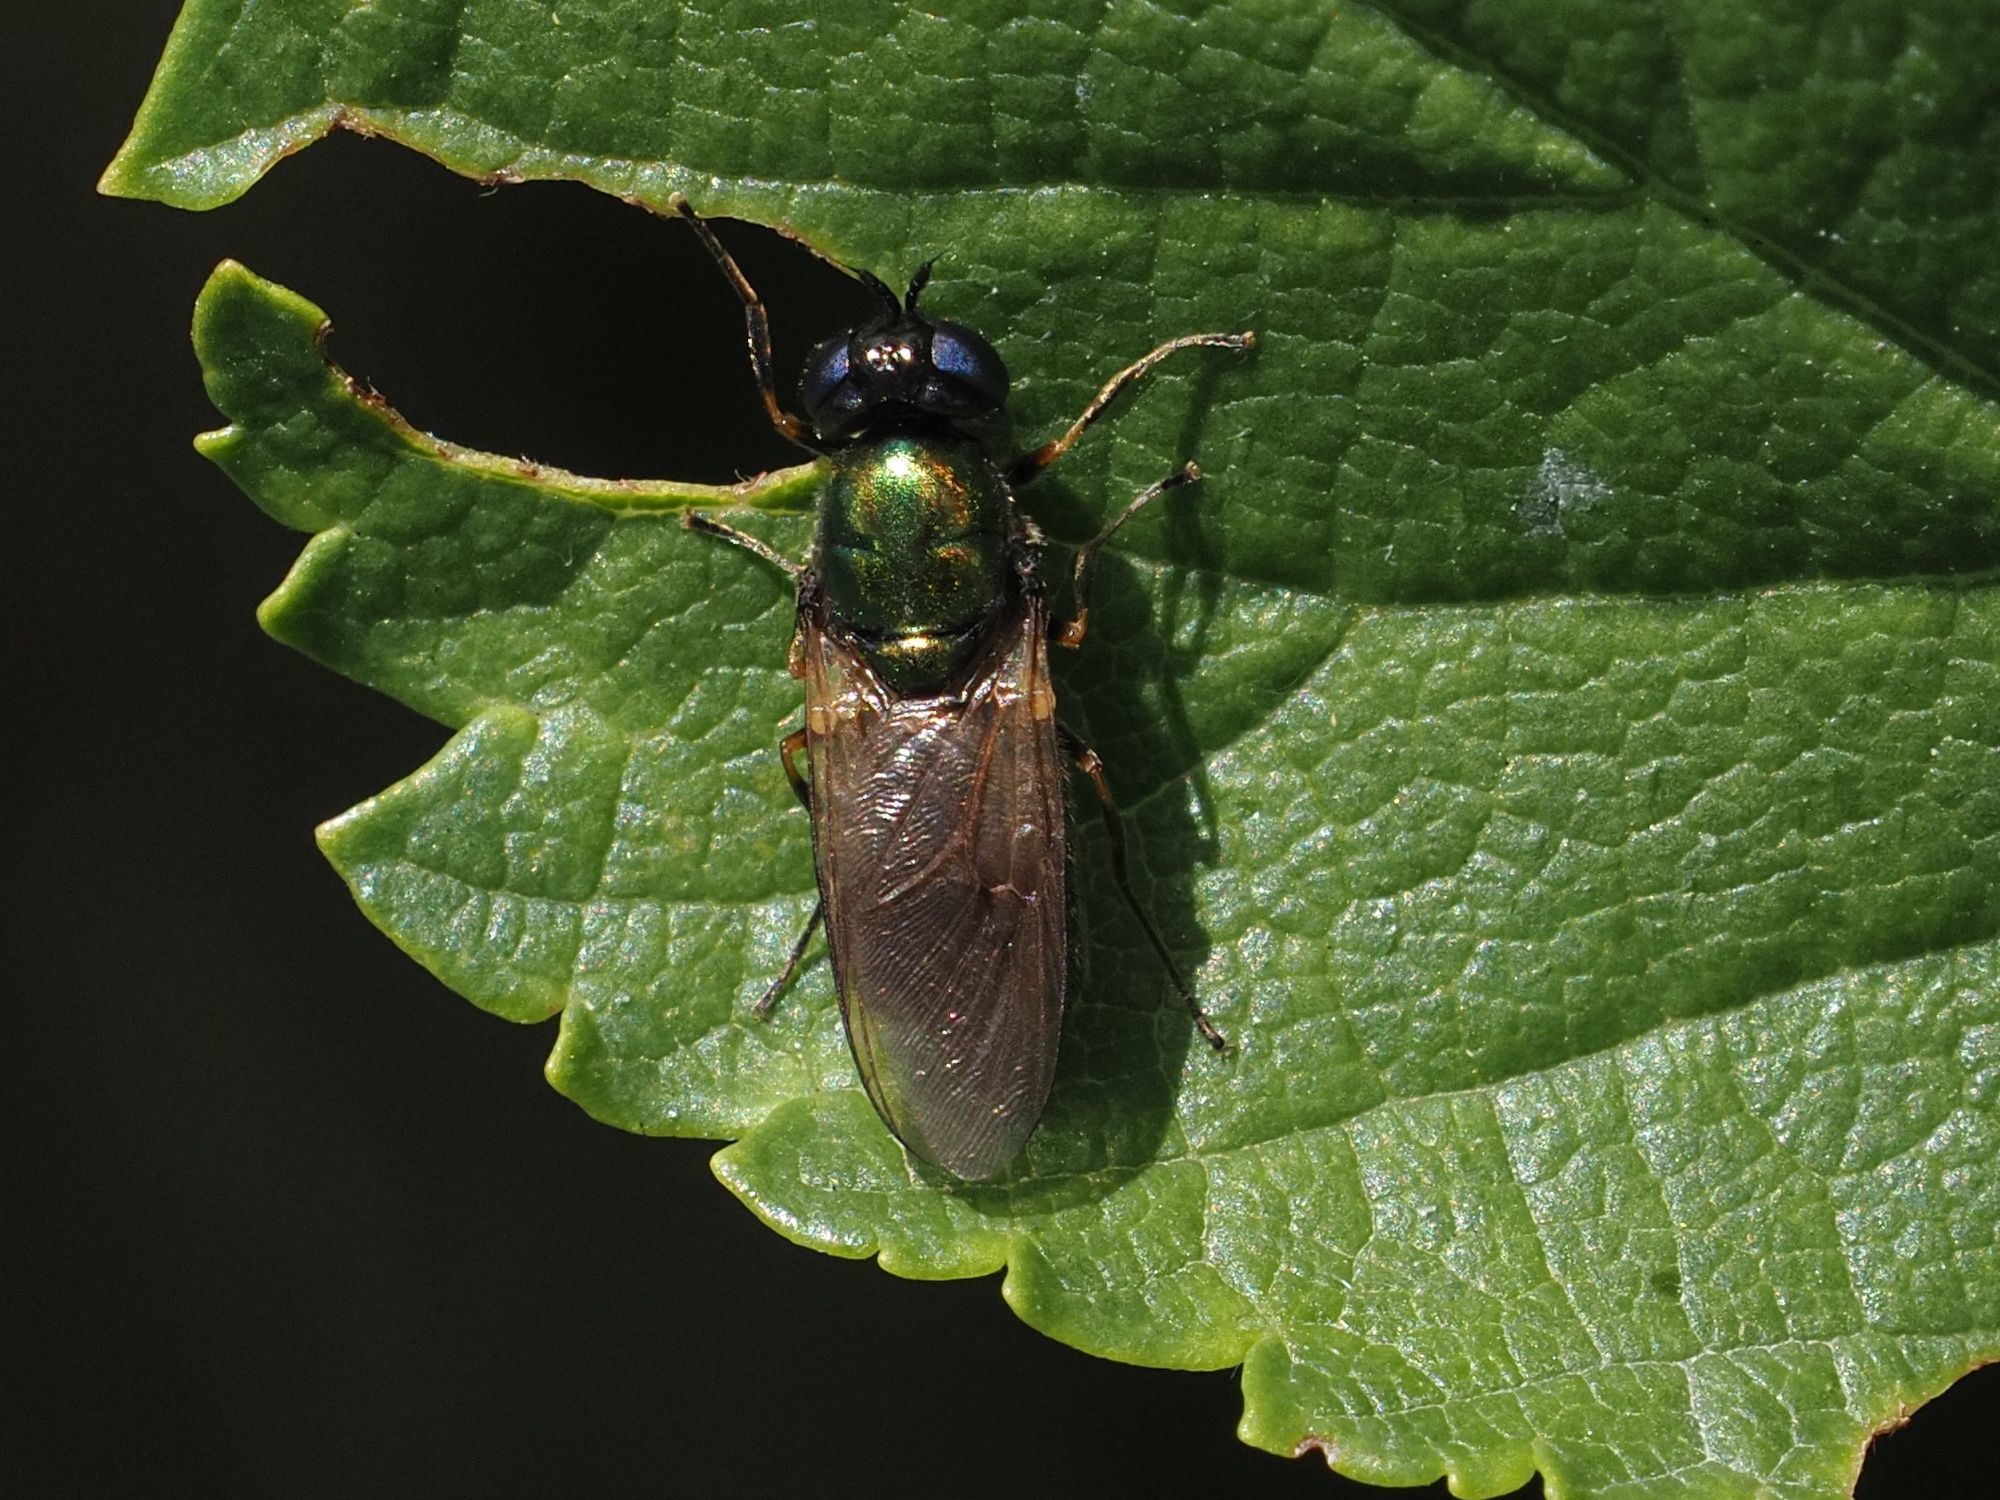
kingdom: Animalia
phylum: Arthropoda
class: Insecta
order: Diptera
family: Stratiomyidae
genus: Chloromyia
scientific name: Chloromyia formosa
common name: Soldier fly
